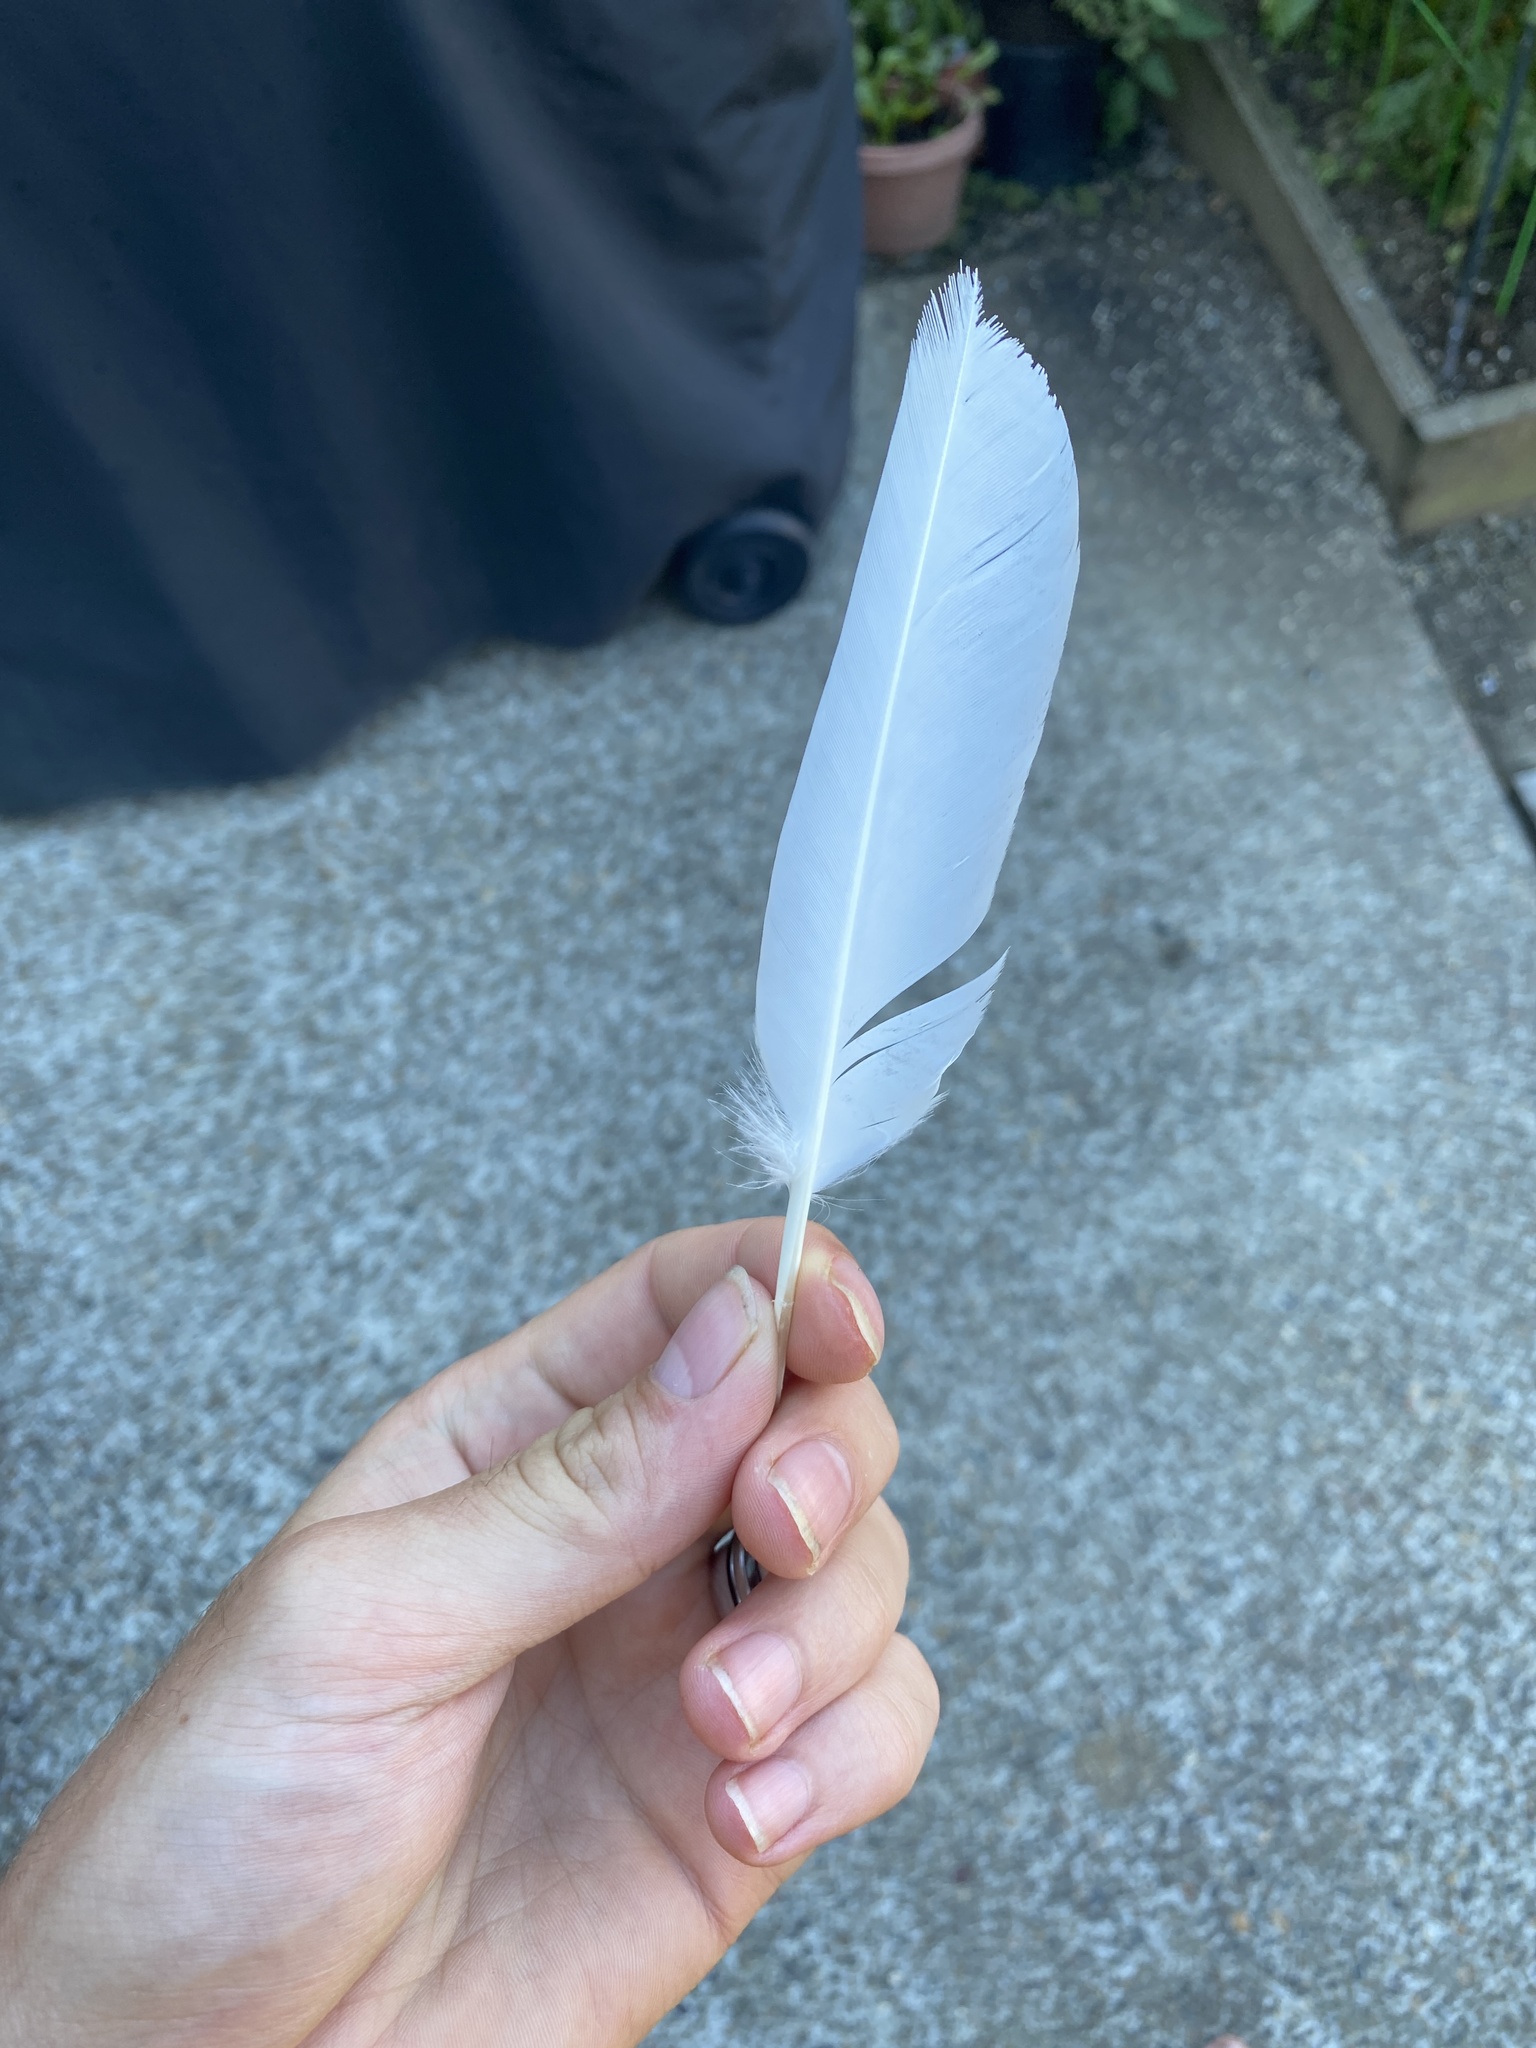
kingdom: Animalia
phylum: Chordata
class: Aves
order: Columbiformes
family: Columbidae
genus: Columba
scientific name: Columba livia
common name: Rock pigeon
